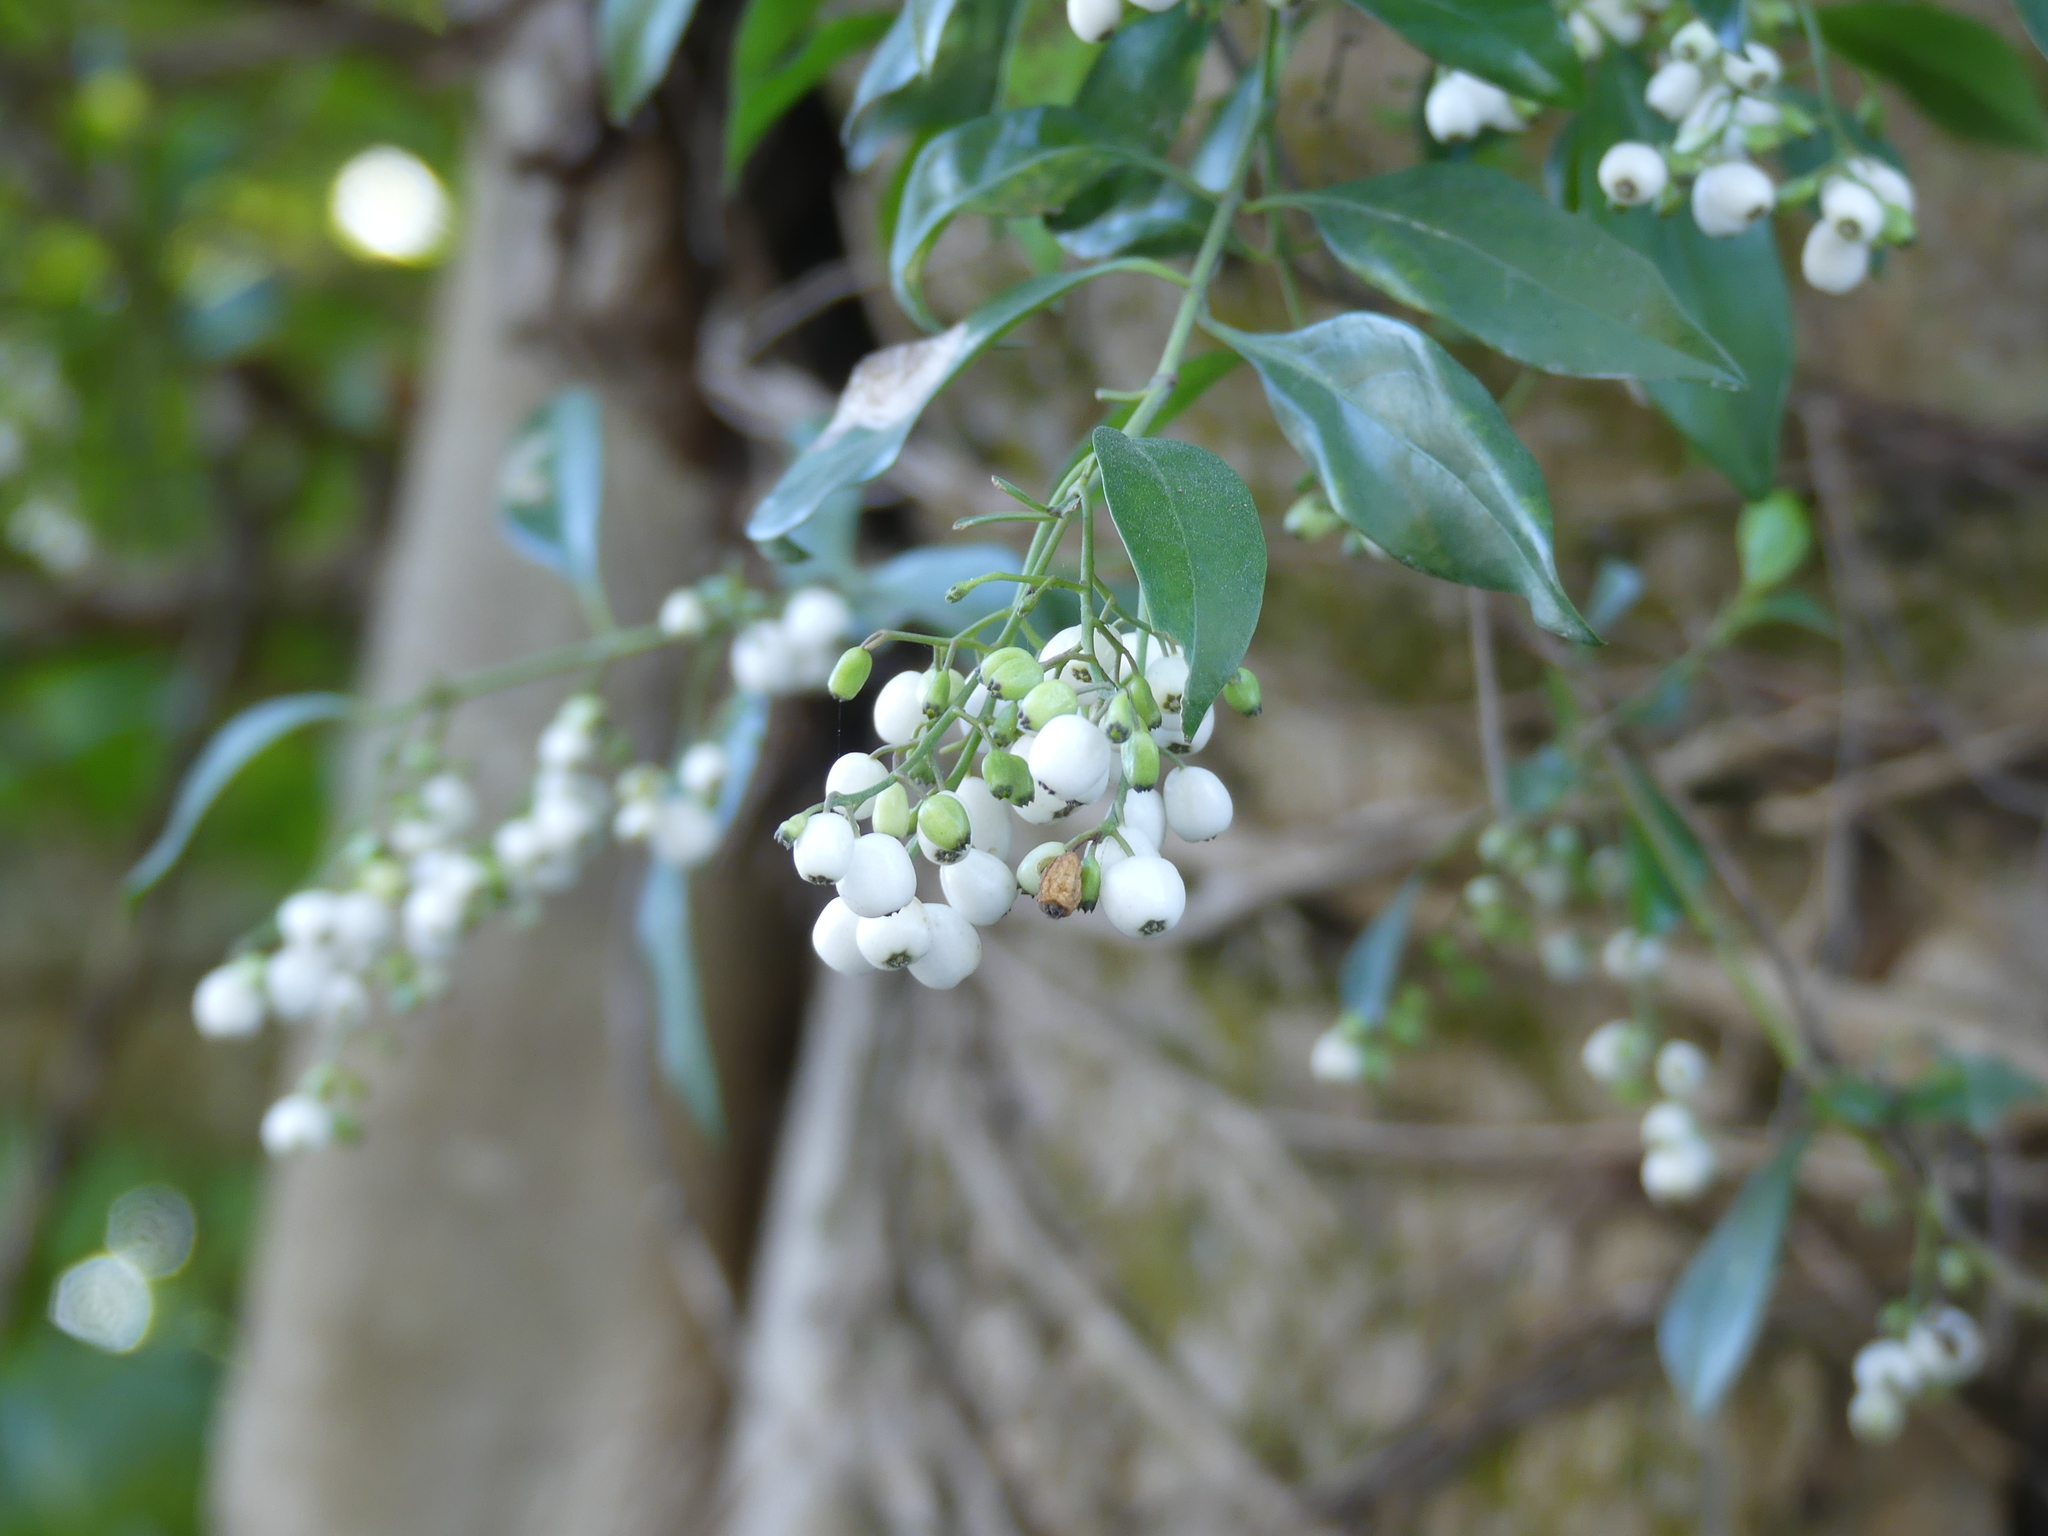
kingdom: Plantae
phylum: Tracheophyta
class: Magnoliopsida
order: Gentianales
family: Rubiaceae
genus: Chiococca
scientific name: Chiococca alba
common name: Snowberry
